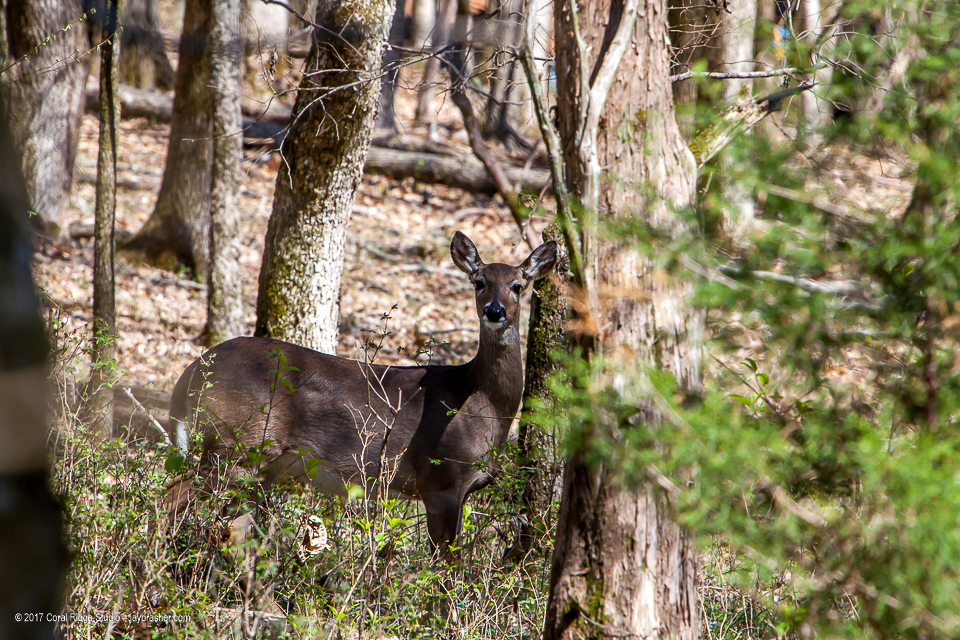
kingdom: Animalia
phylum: Chordata
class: Mammalia
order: Artiodactyla
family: Cervidae
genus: Odocoileus
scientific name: Odocoileus virginianus
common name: White-tailed deer
